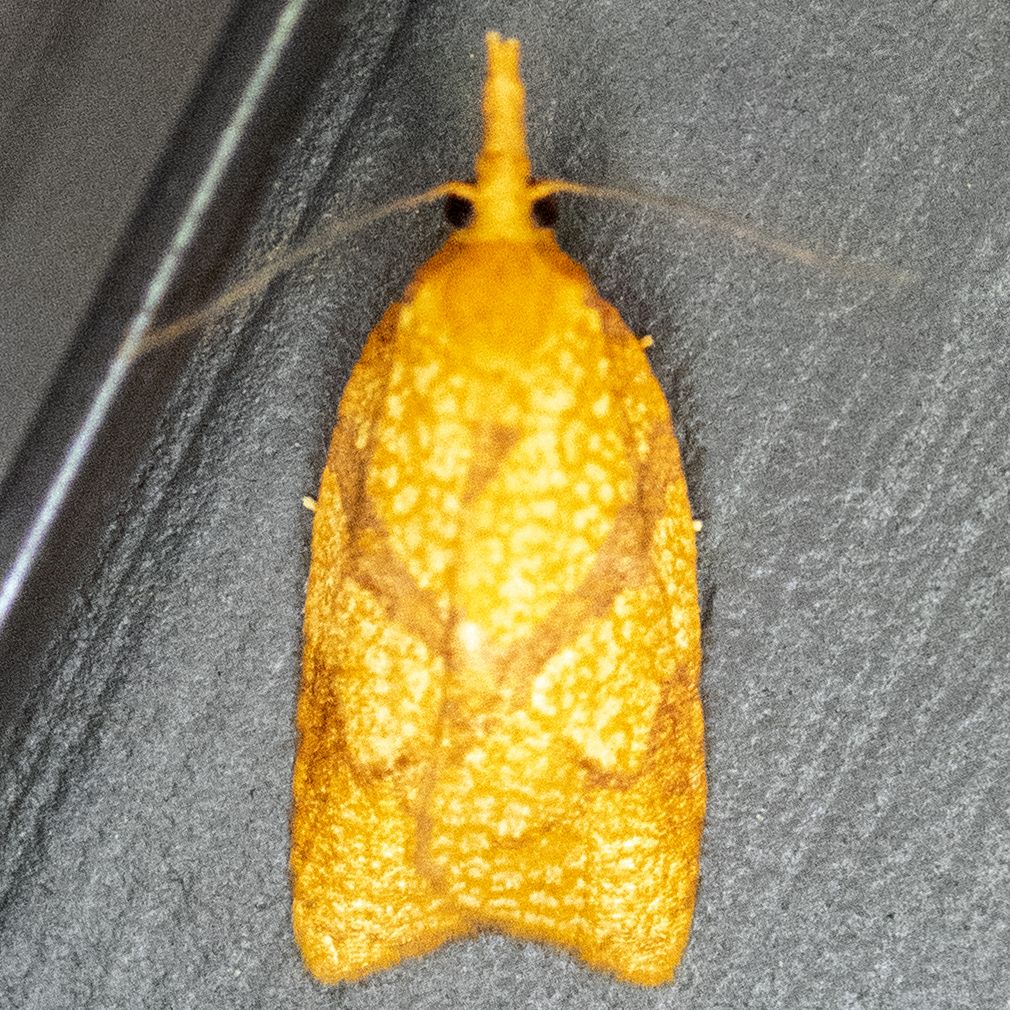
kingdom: Animalia
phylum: Arthropoda
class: Insecta
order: Lepidoptera
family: Tortricidae
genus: Cenopis
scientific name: Cenopis reticulatana
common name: Reticulated fruitworm moth
